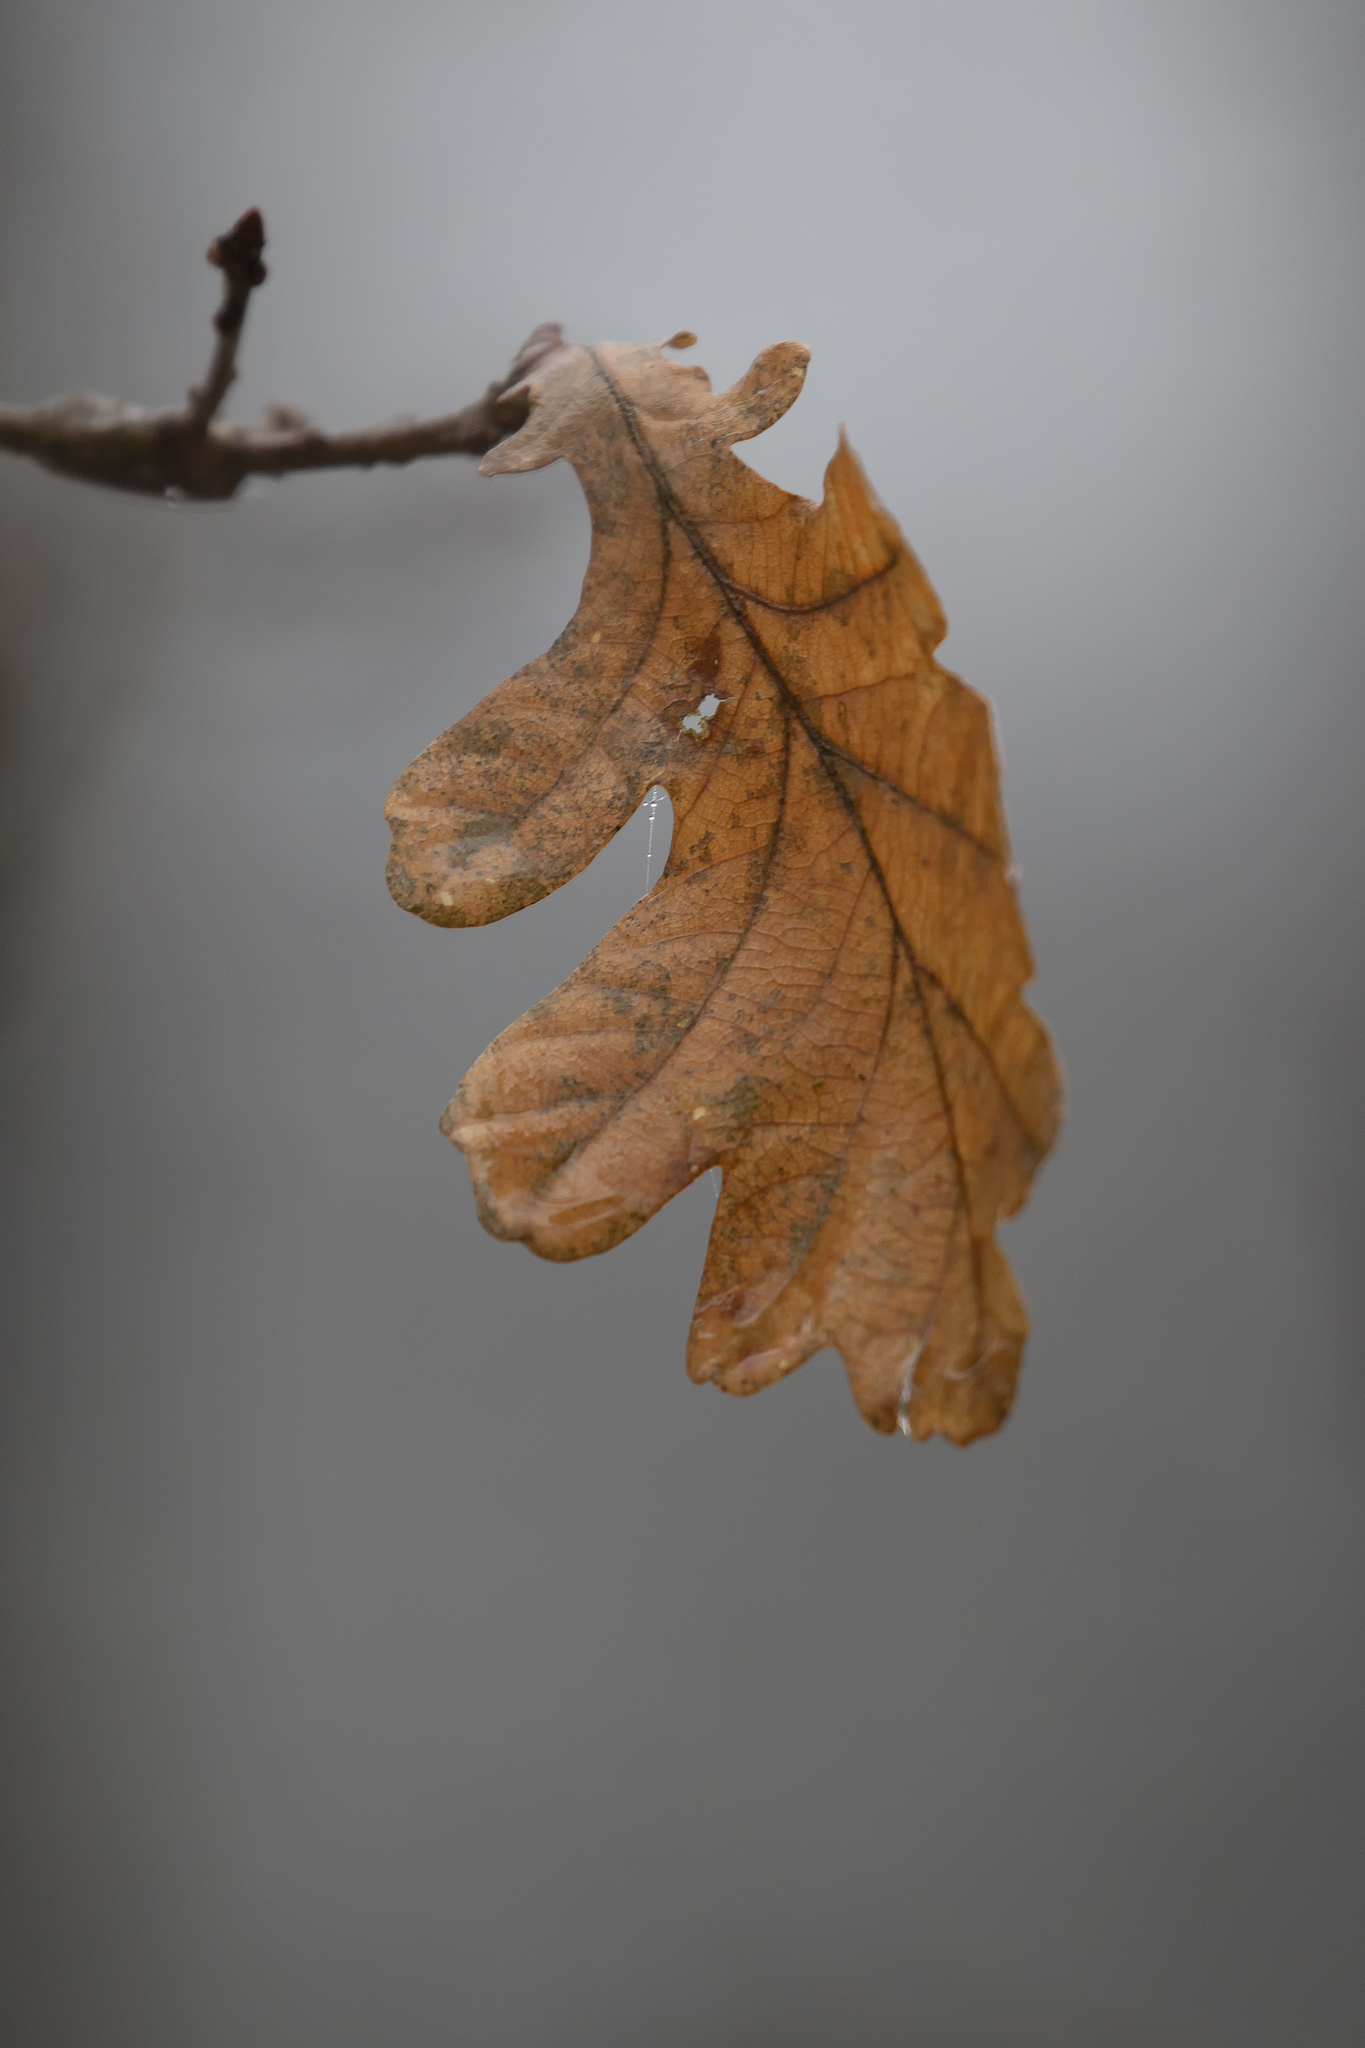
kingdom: Plantae
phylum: Tracheophyta
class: Magnoliopsida
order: Fagales
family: Fagaceae
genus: Quercus
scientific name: Quercus robur
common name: Pedunculate oak
